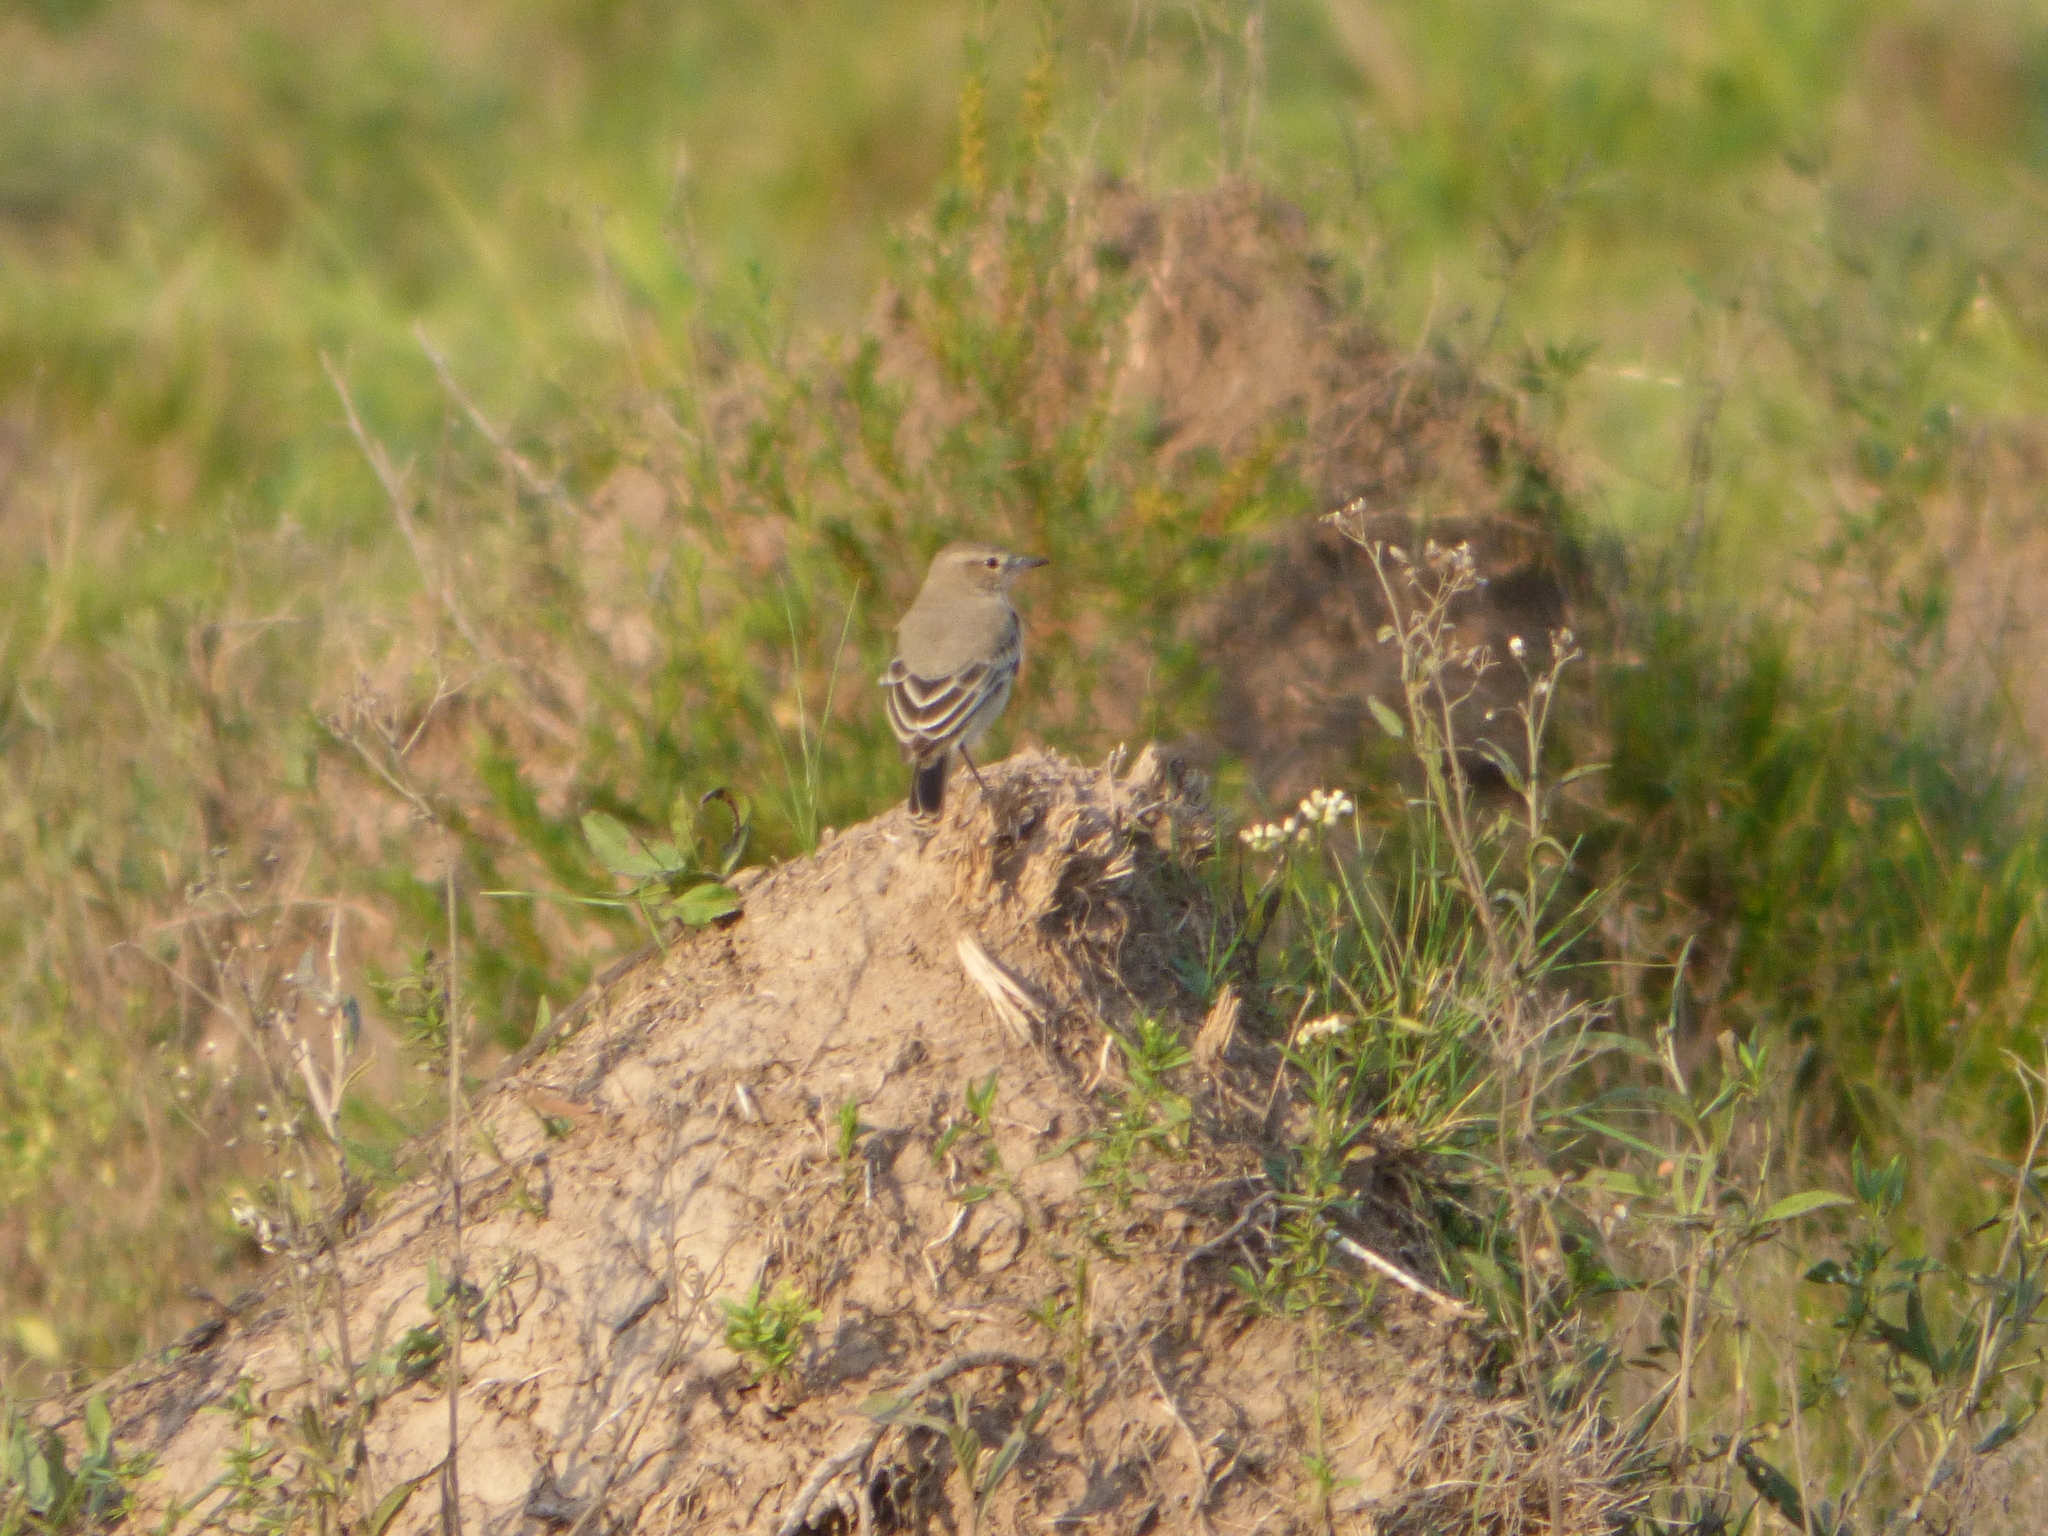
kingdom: Animalia
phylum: Chordata
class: Aves
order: Passeriformes
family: Tyrannidae
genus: Agriornis
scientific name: Agriornis murinus
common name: Lesser shrike-tyrant
